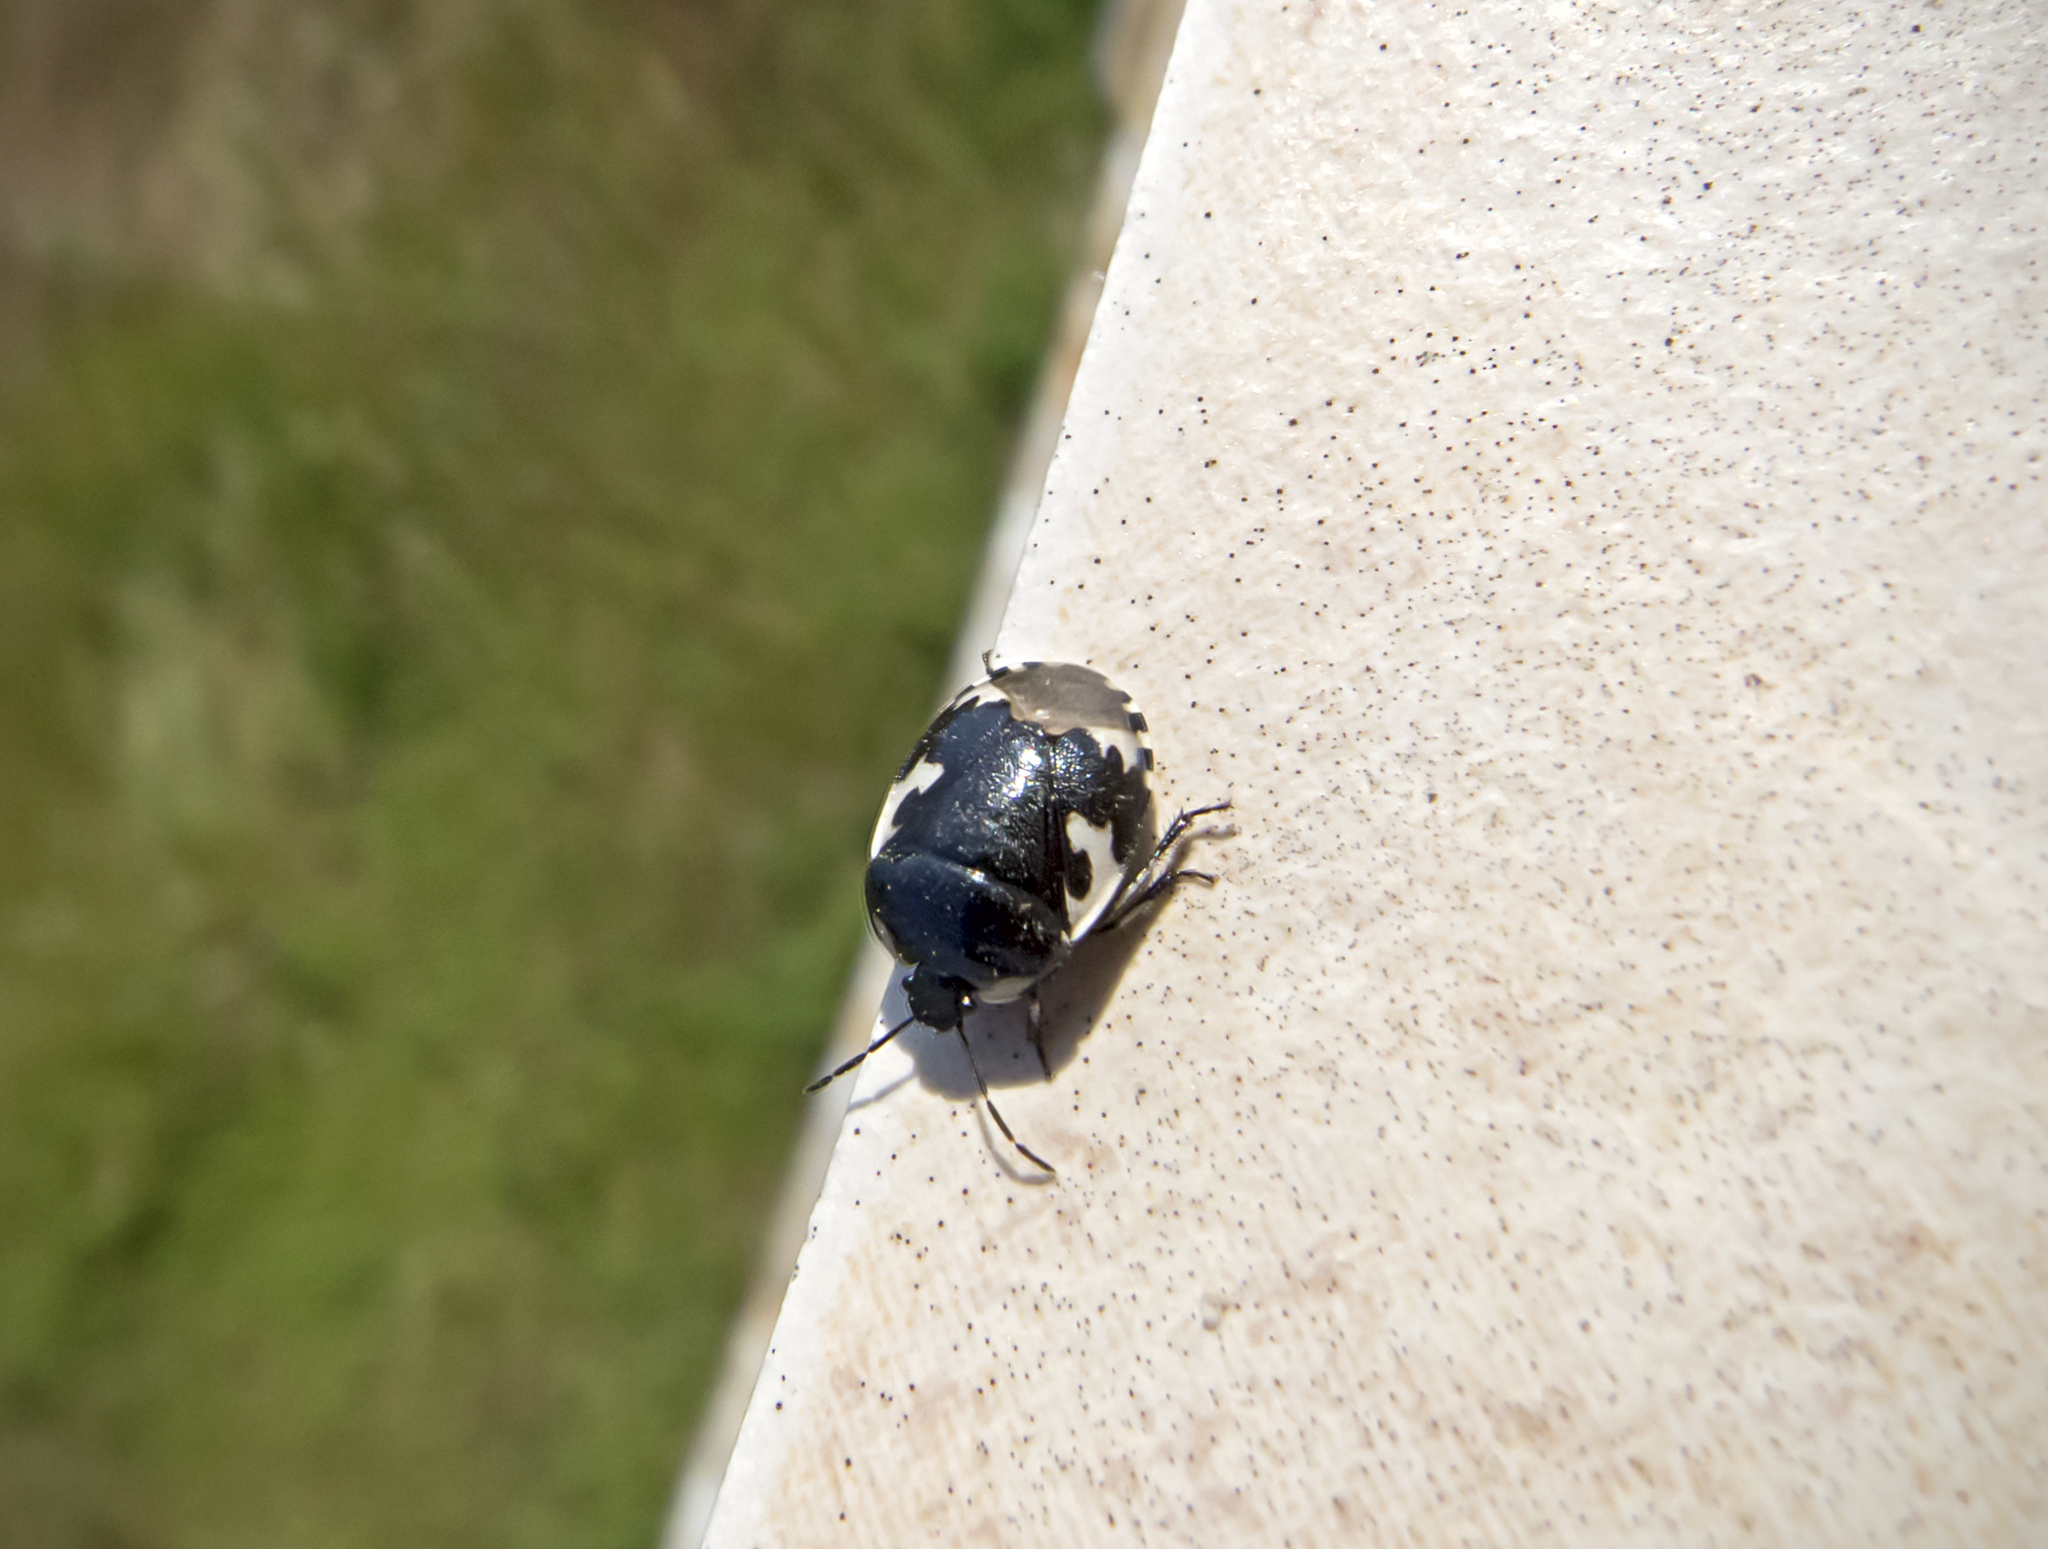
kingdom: Animalia
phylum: Arthropoda
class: Insecta
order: Hemiptera
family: Cydnidae
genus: Tritomegas
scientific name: Tritomegas bicolor
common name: Pied shieldbug
